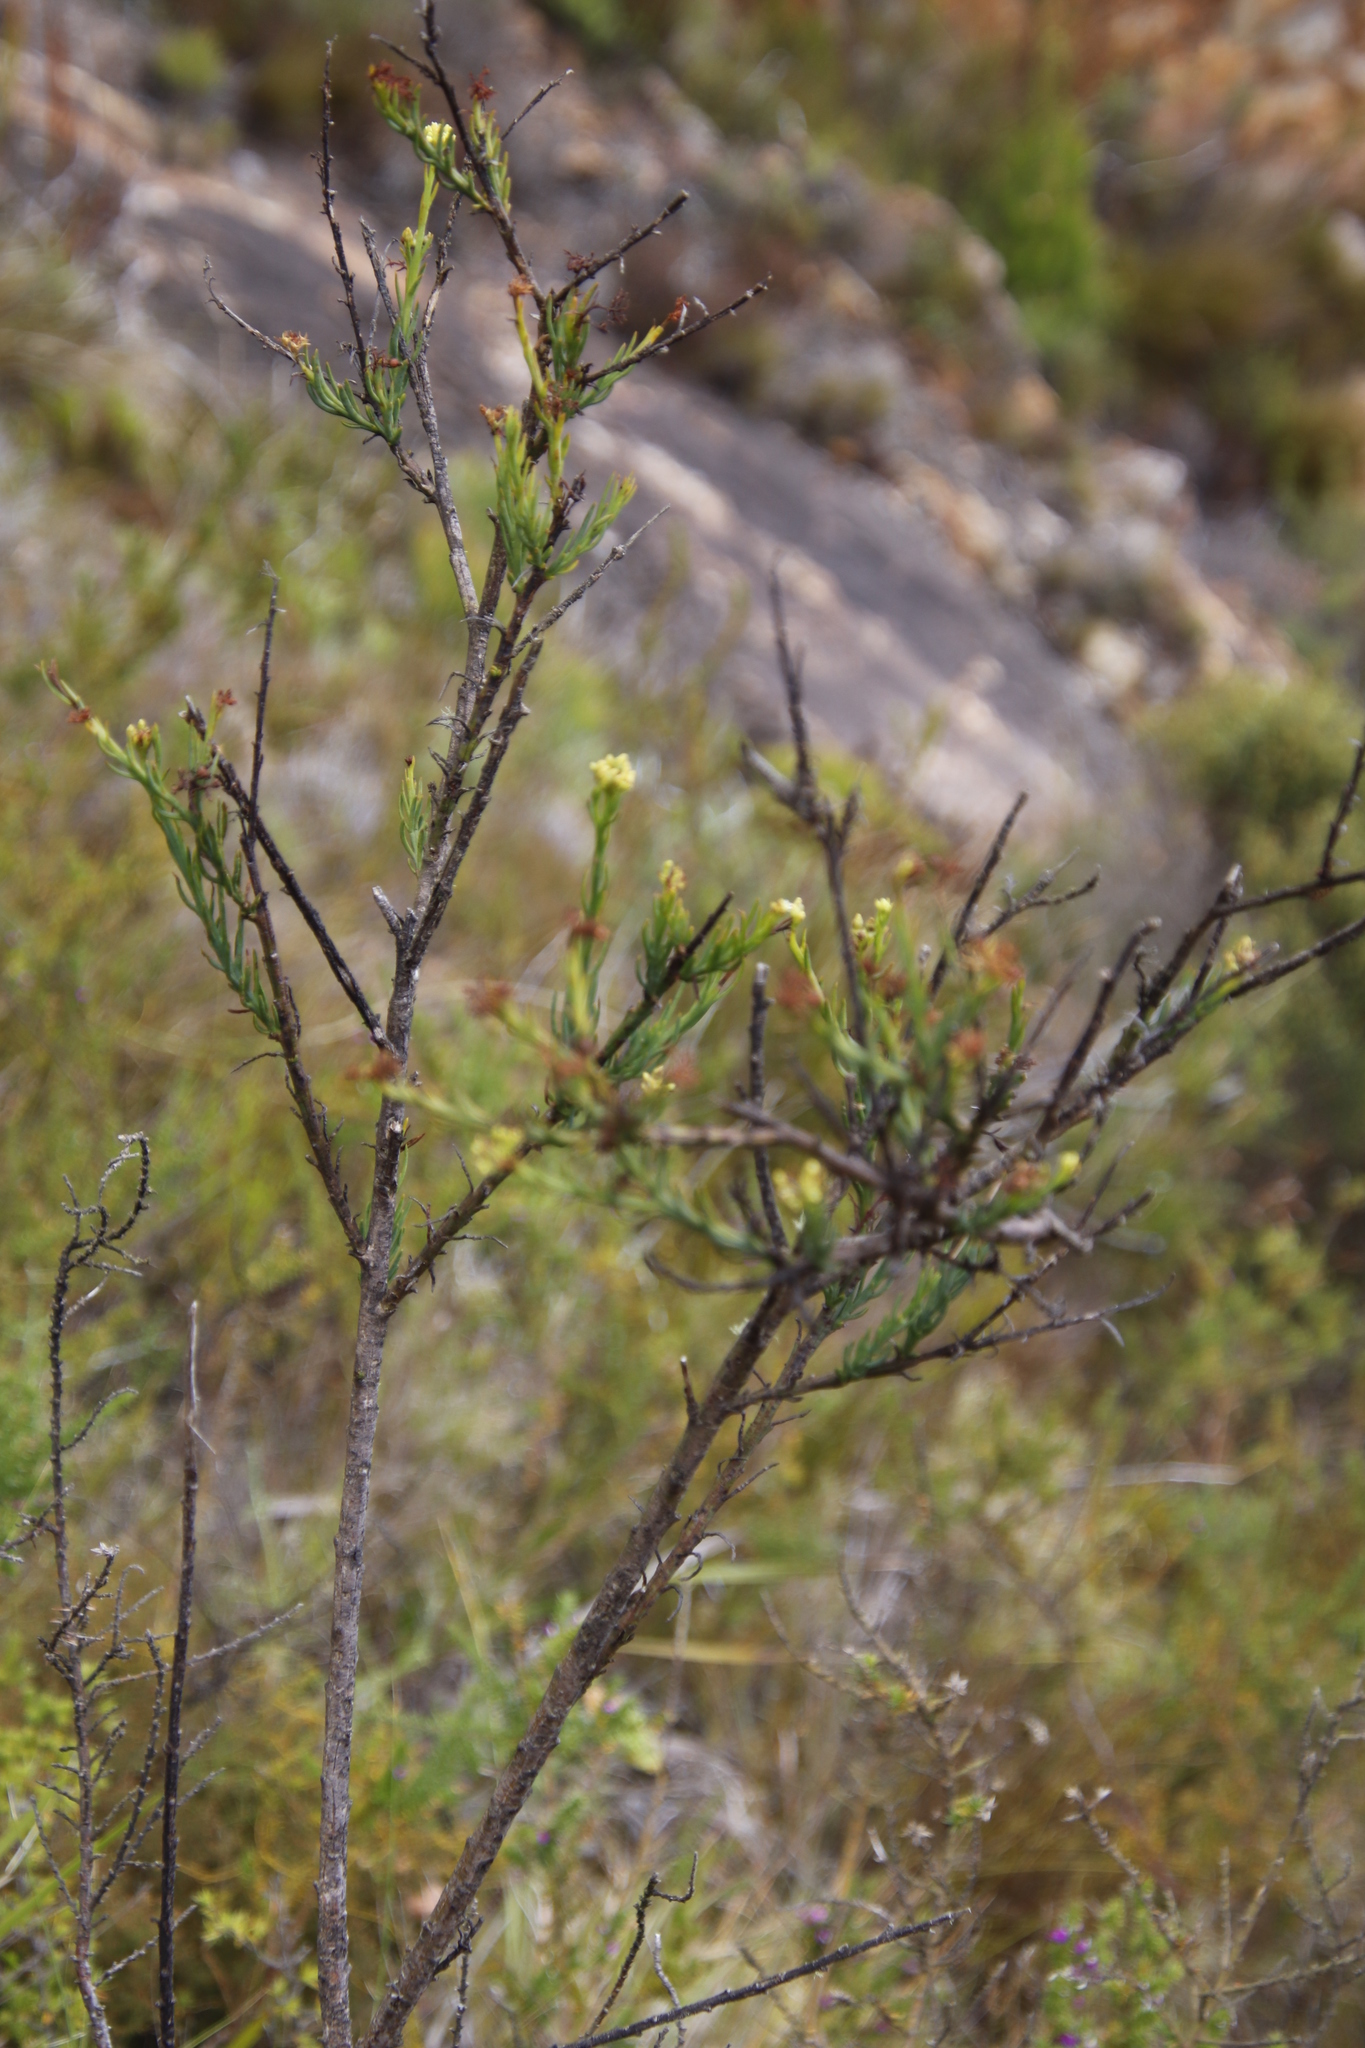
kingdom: Plantae
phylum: Tracheophyta
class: Magnoliopsida
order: Santalales
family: Thesiaceae
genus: Thesium
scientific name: Thesium strictum
